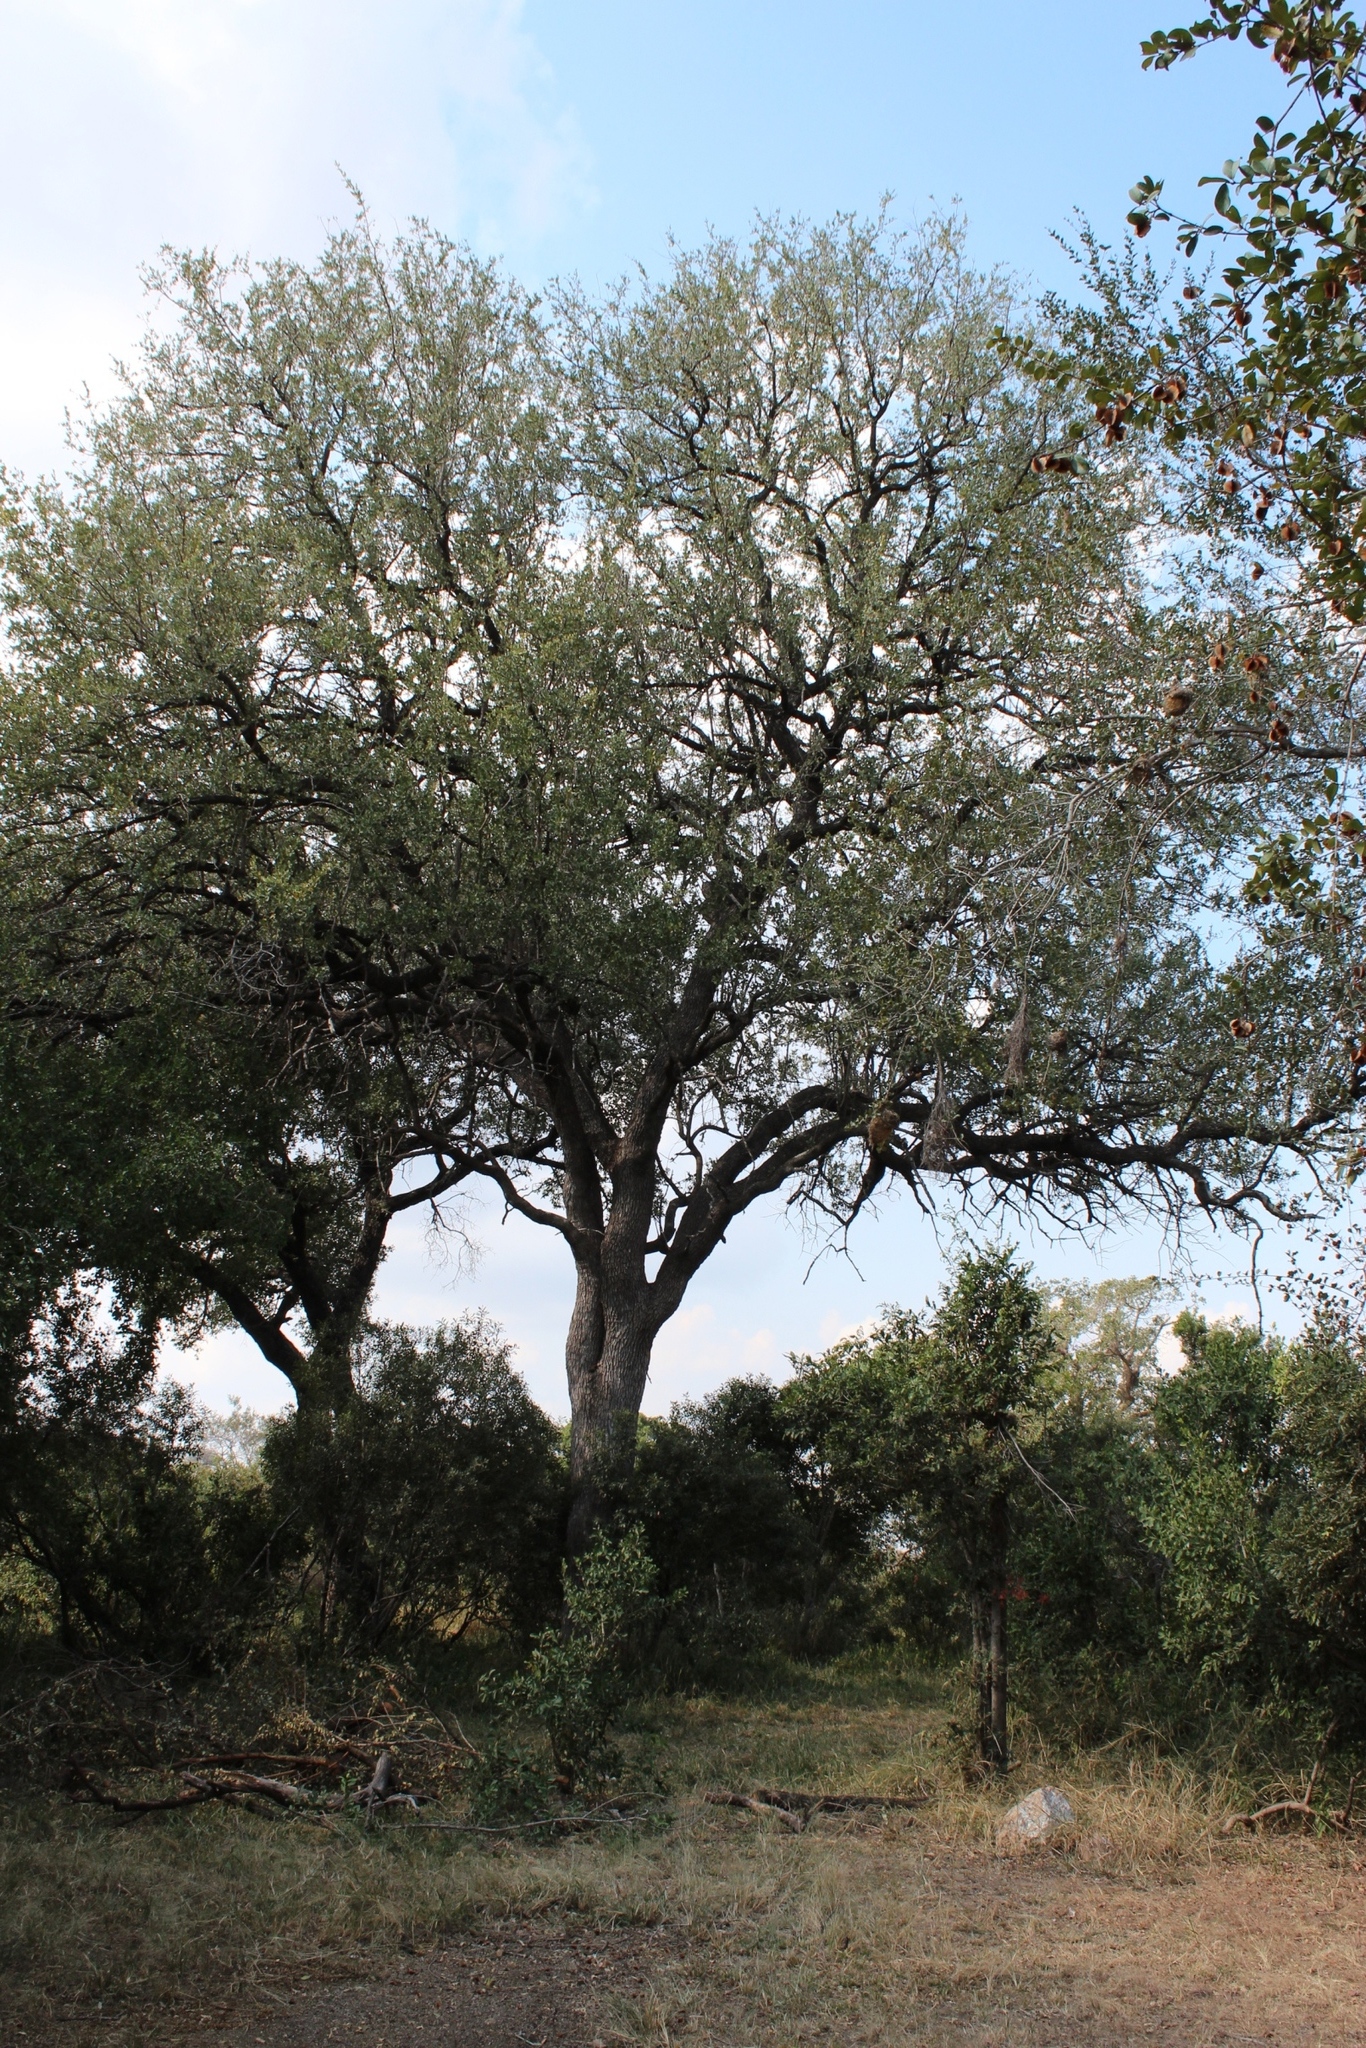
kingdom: Plantae
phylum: Tracheophyta
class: Magnoliopsida
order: Myrtales
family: Combretaceae
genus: Combretum
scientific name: Combretum imberbe
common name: Leadwood
